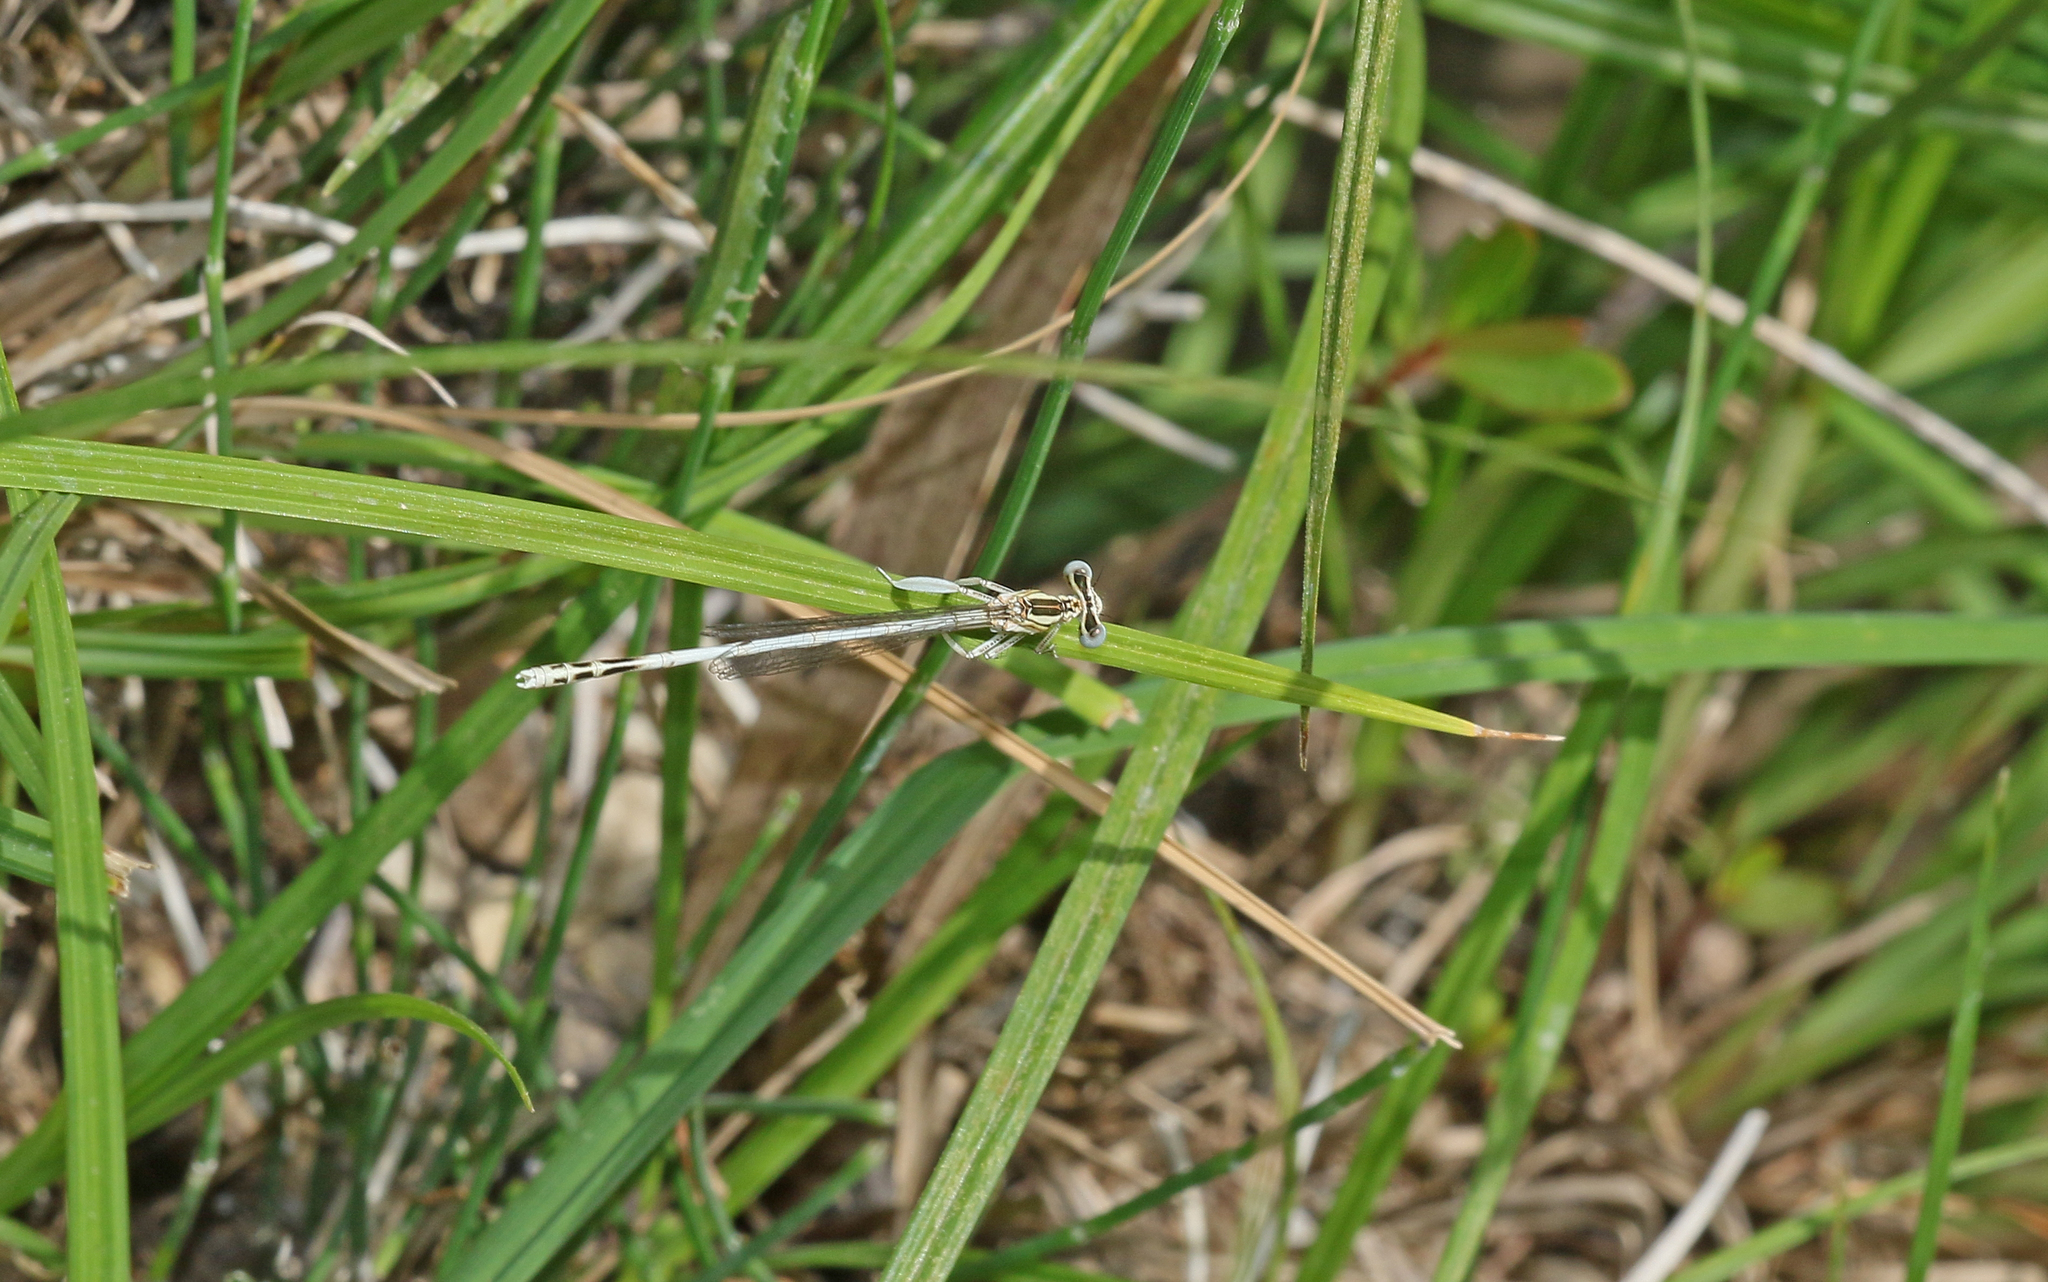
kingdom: Animalia
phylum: Arthropoda
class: Insecta
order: Odonata
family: Platycnemididae
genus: Platycnemis
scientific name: Platycnemis latipes
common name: White featherleg
